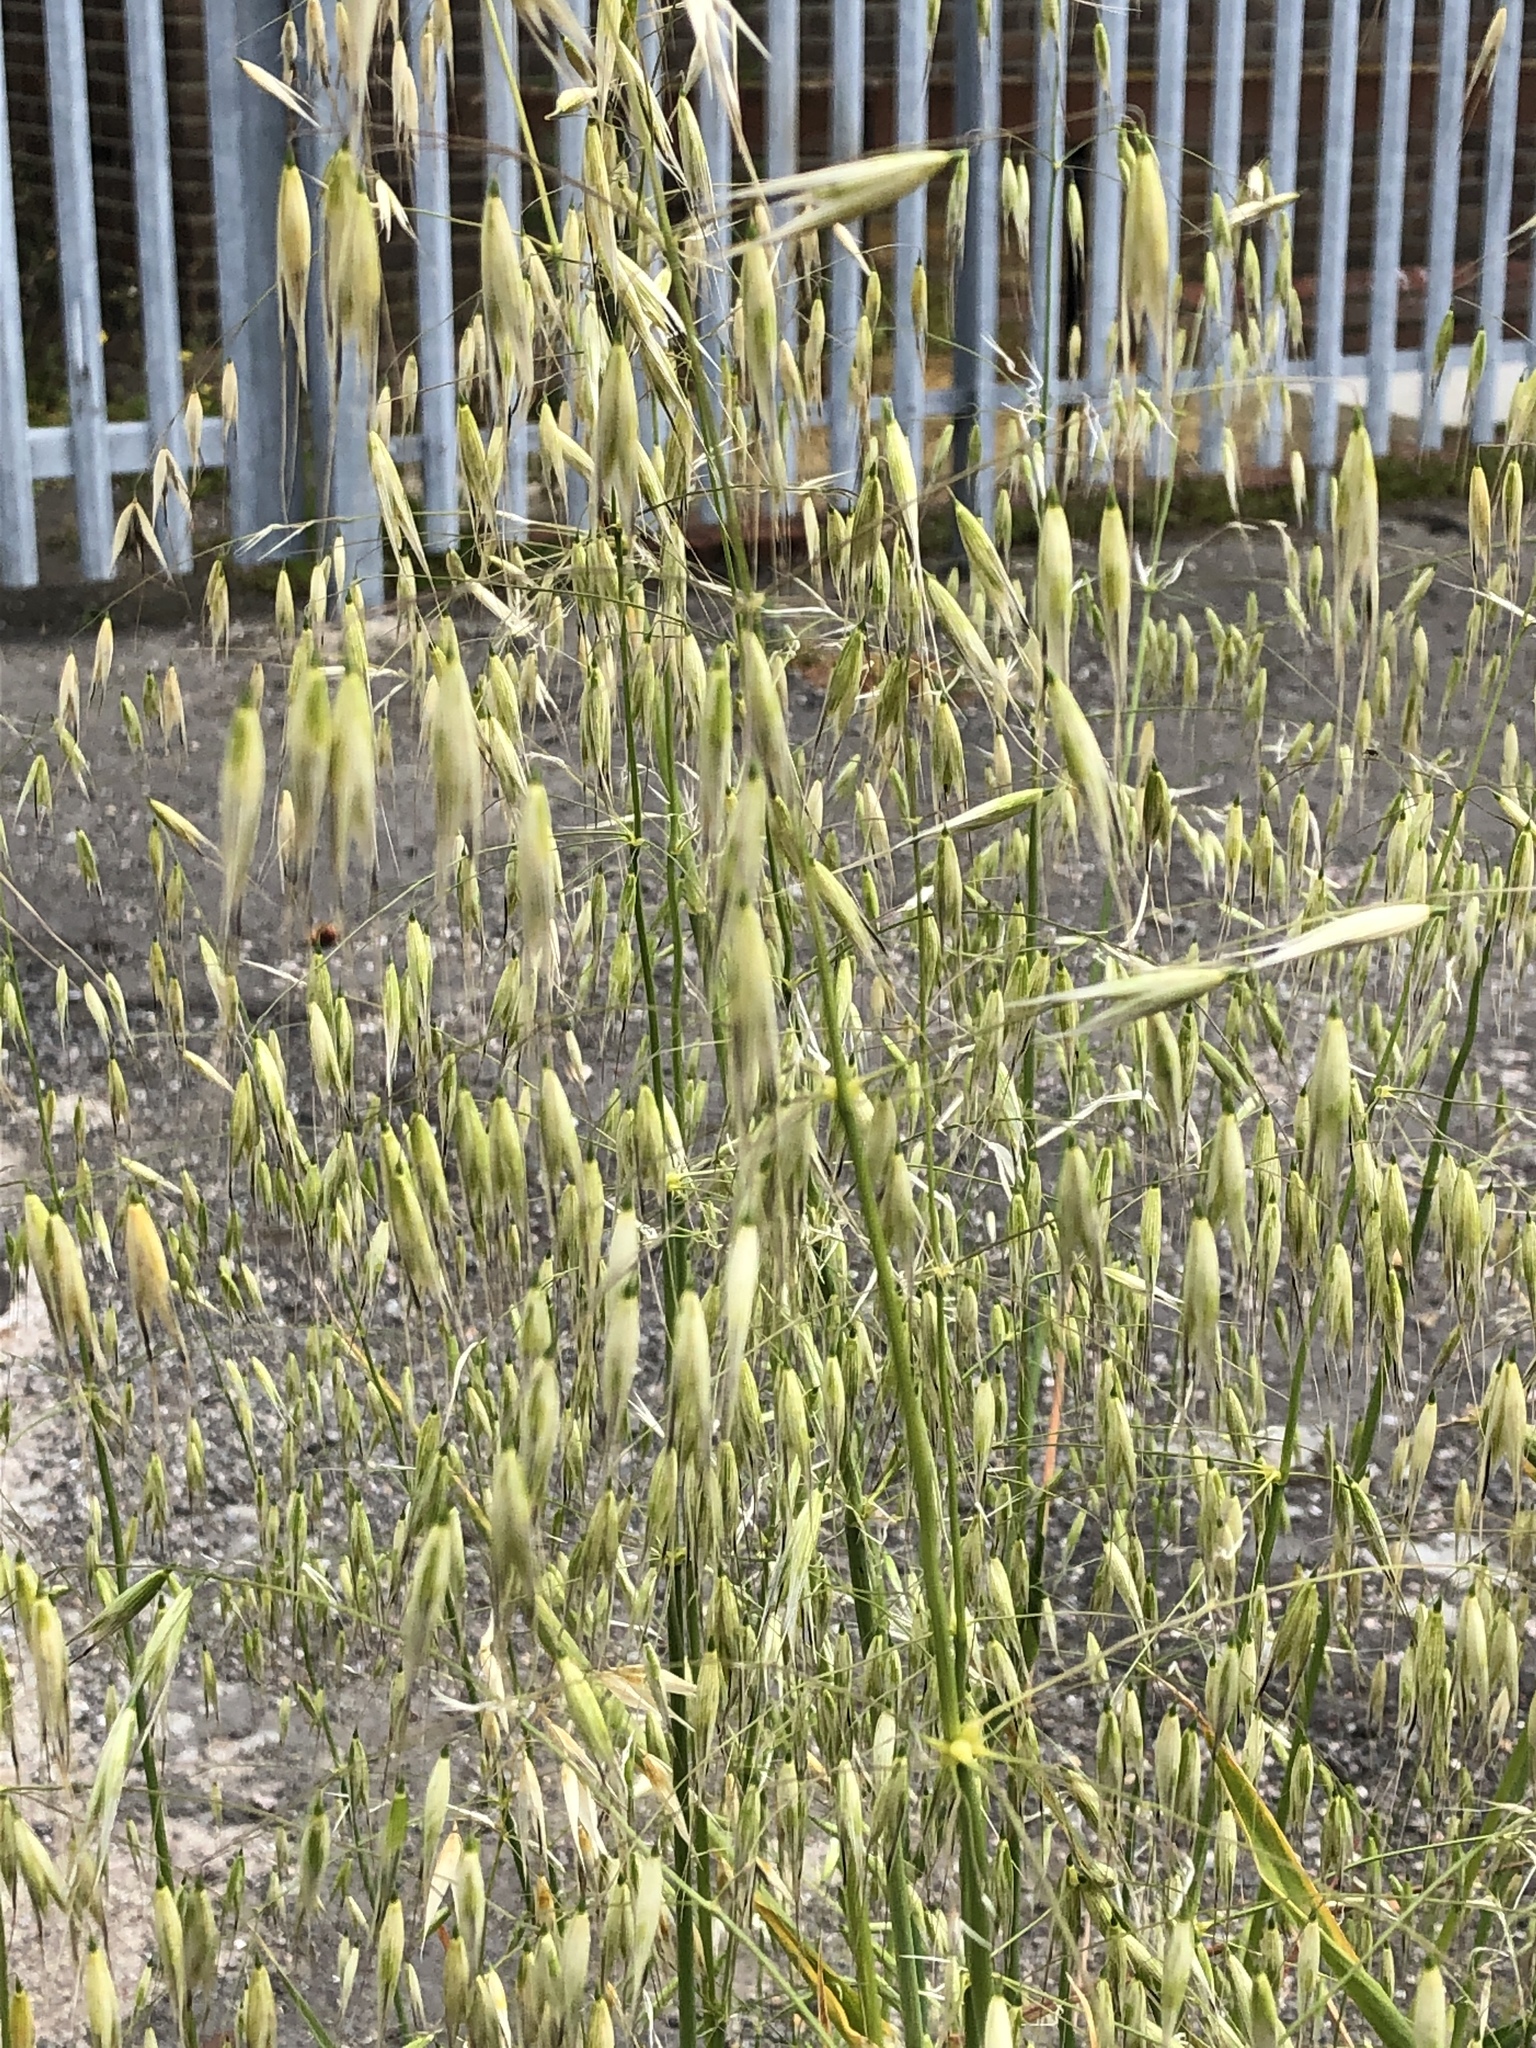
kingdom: Plantae
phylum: Tracheophyta
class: Liliopsida
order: Poales
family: Poaceae
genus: Avena
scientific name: Avena fatua
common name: Wild oat
